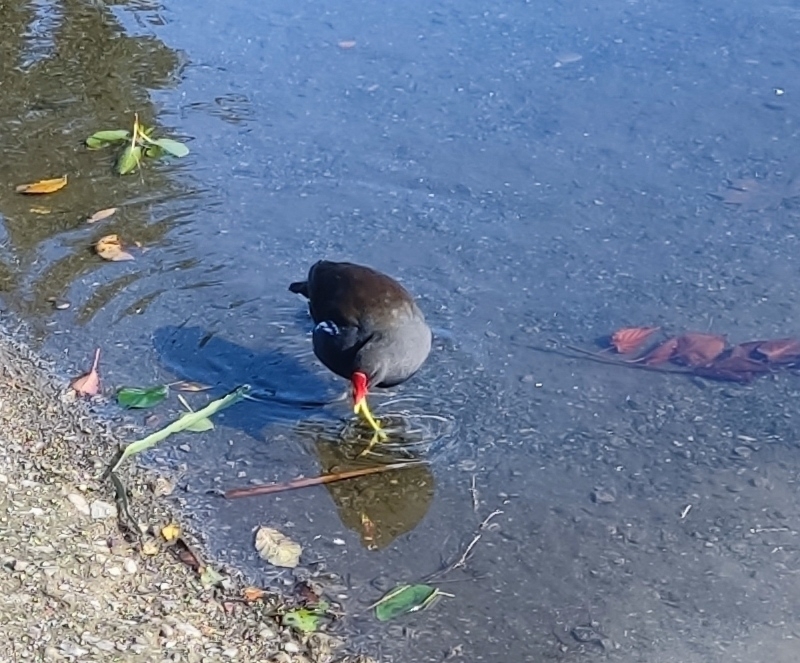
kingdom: Animalia
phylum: Chordata
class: Aves
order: Gruiformes
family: Rallidae
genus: Gallinula
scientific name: Gallinula chloropus
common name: Common moorhen
